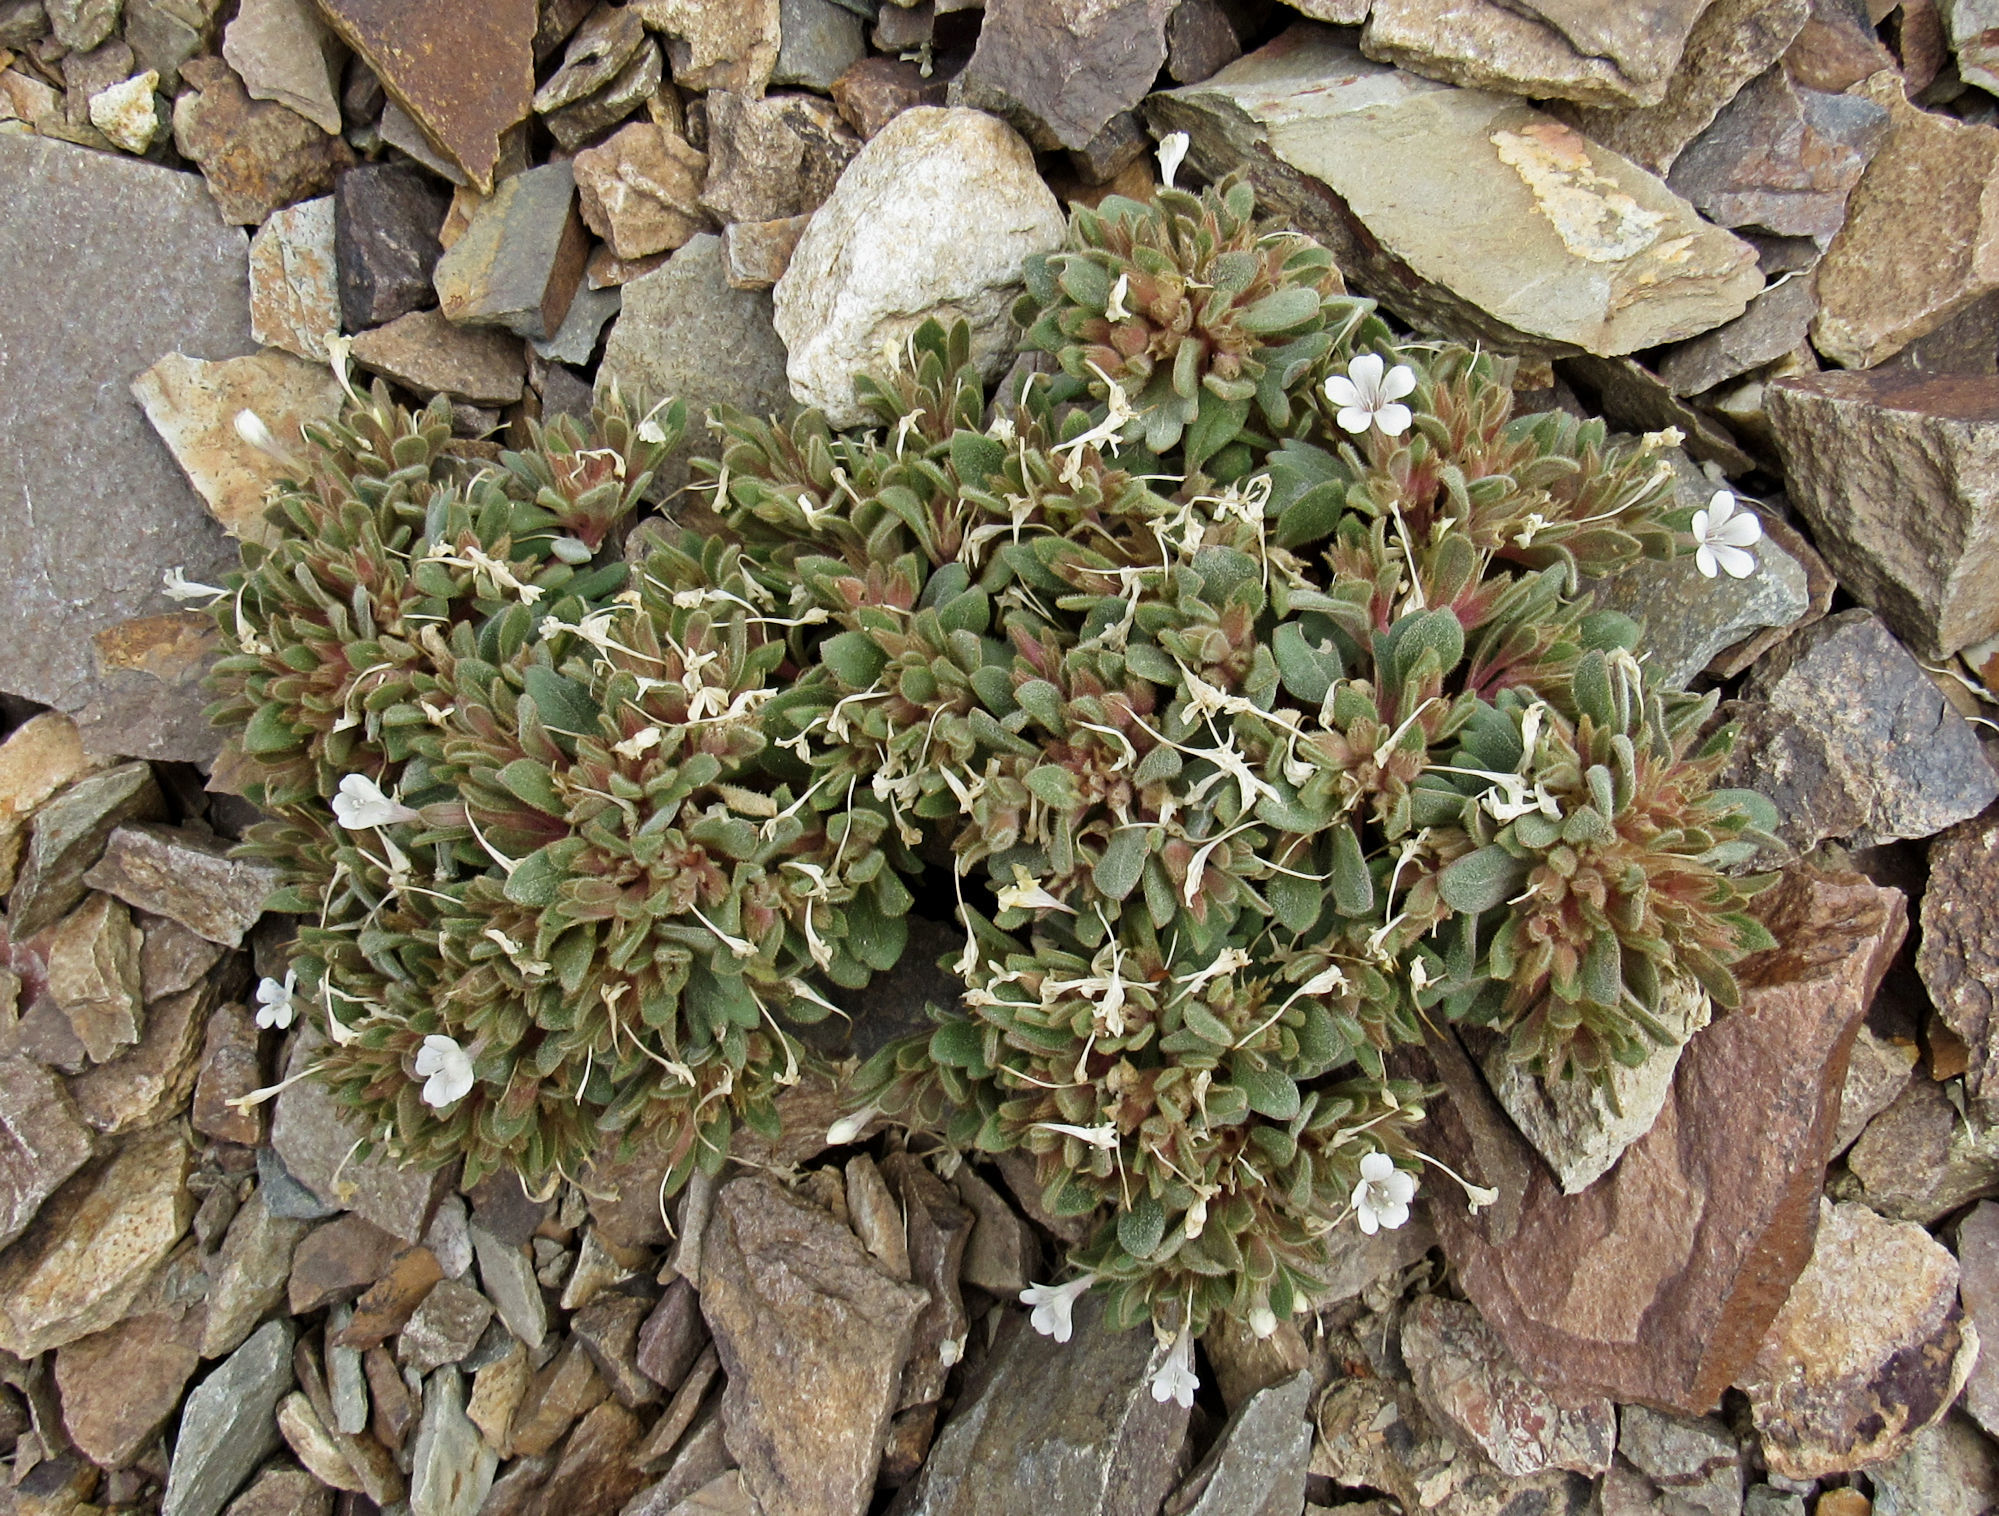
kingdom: Plantae
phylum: Tracheophyta
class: Magnoliopsida
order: Ericales
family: Polemoniaceae
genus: Collomia
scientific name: Collomia debilis
